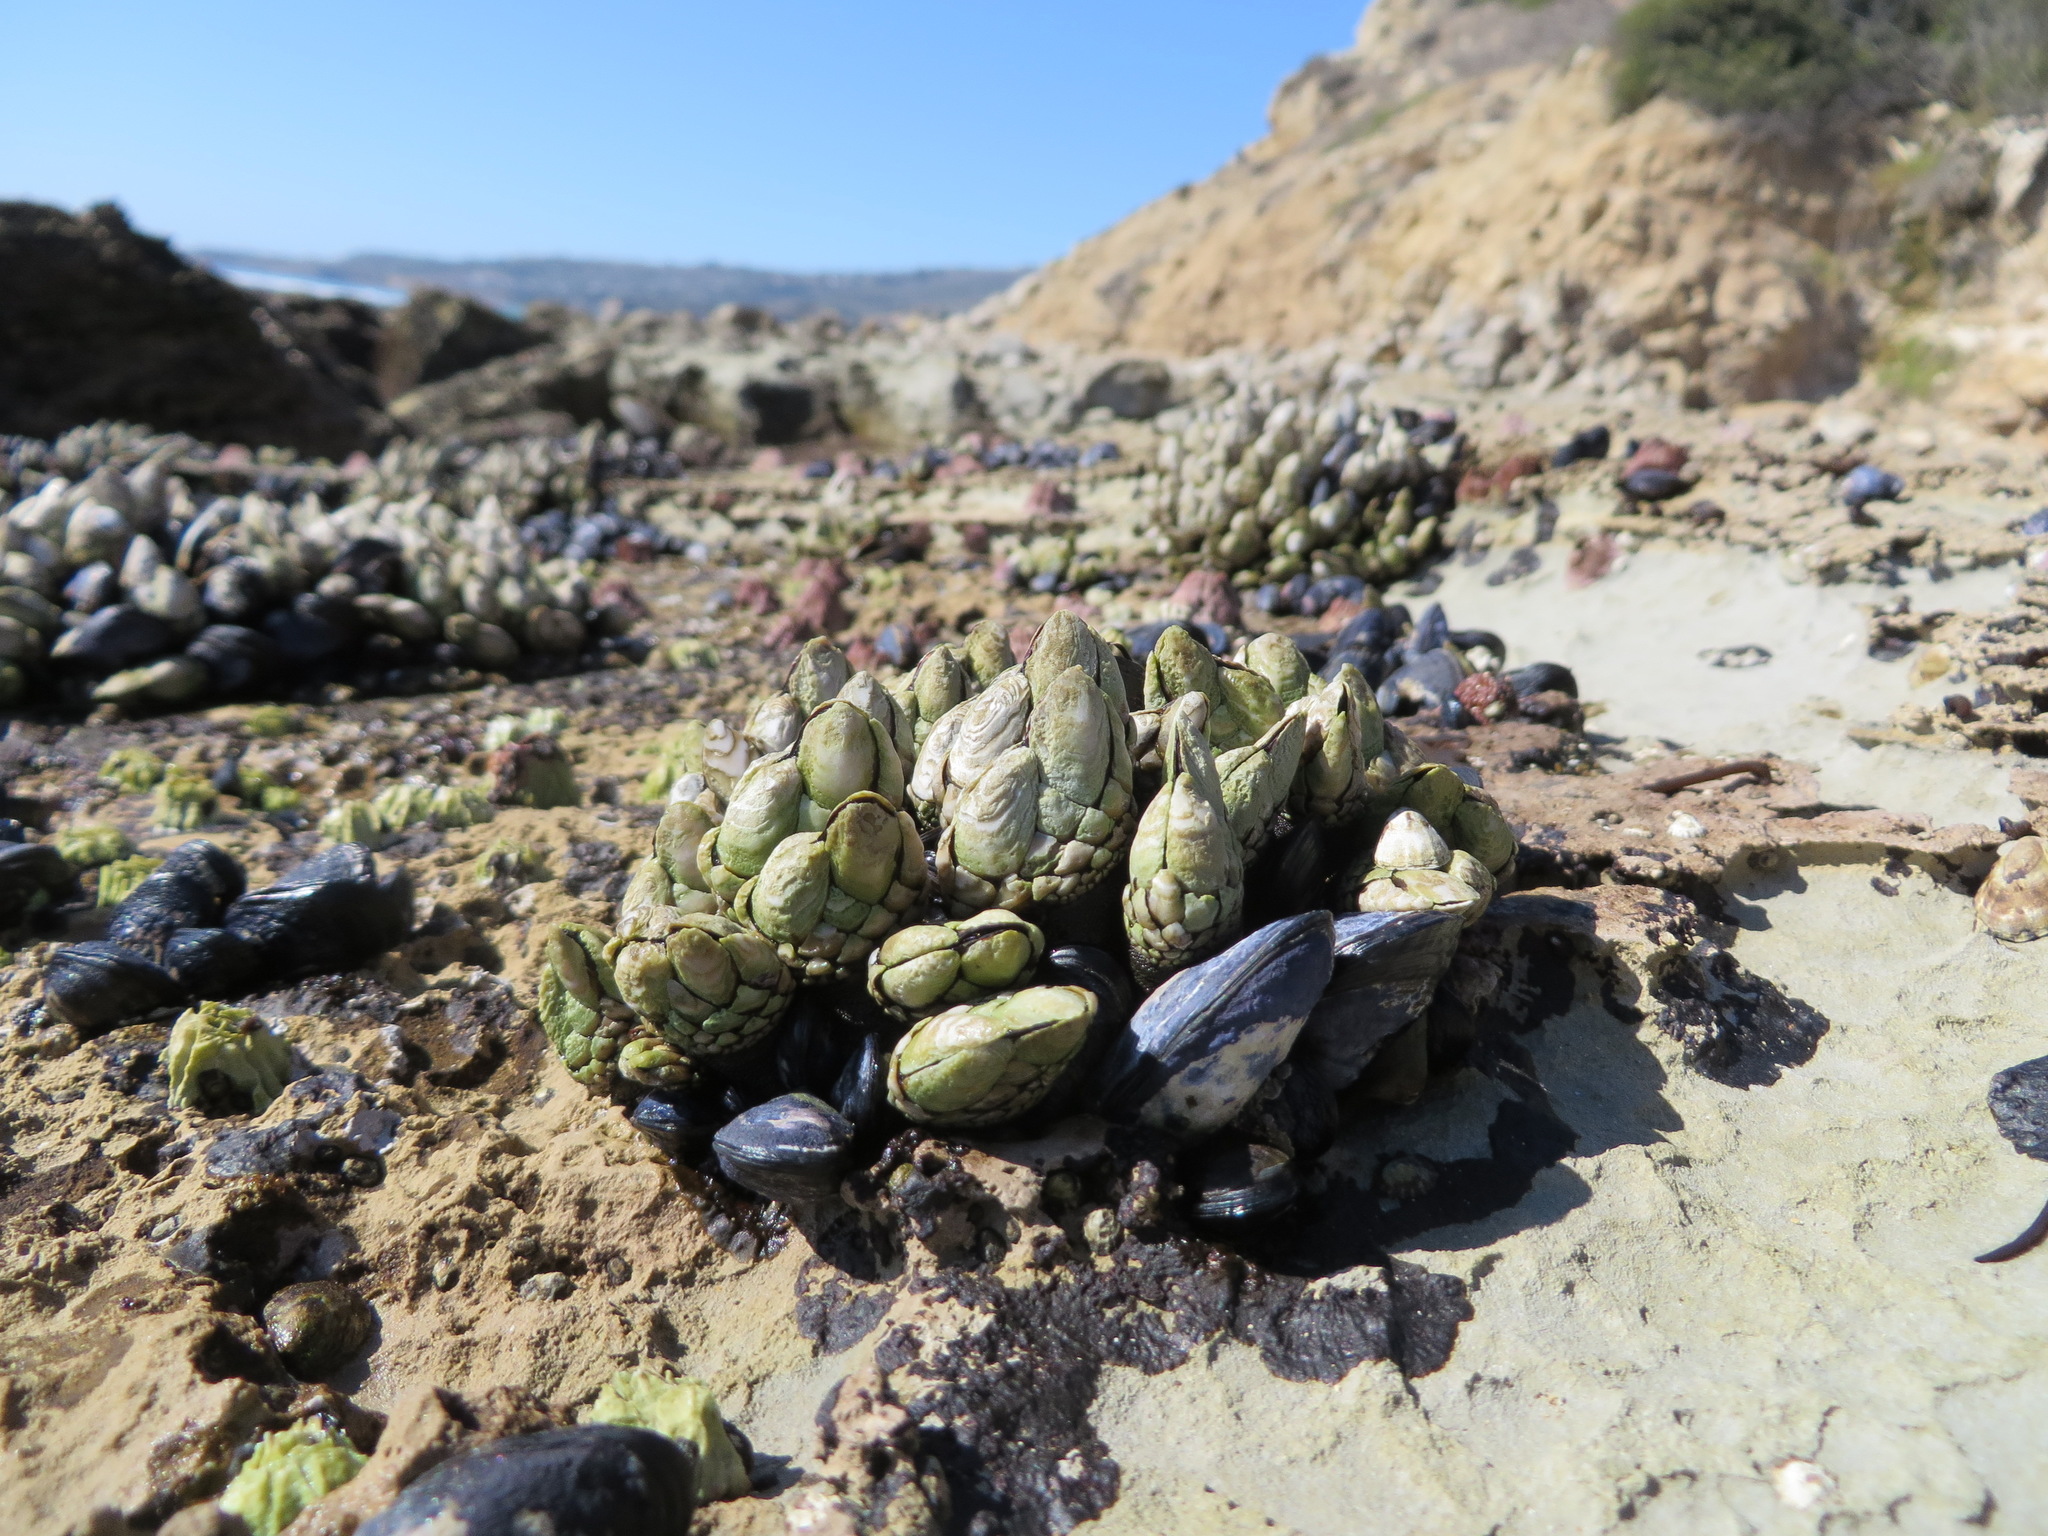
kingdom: Animalia
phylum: Arthropoda
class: Maxillopoda
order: Pedunculata
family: Pollicipedidae
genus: Pollicipes
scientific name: Pollicipes polymerus
